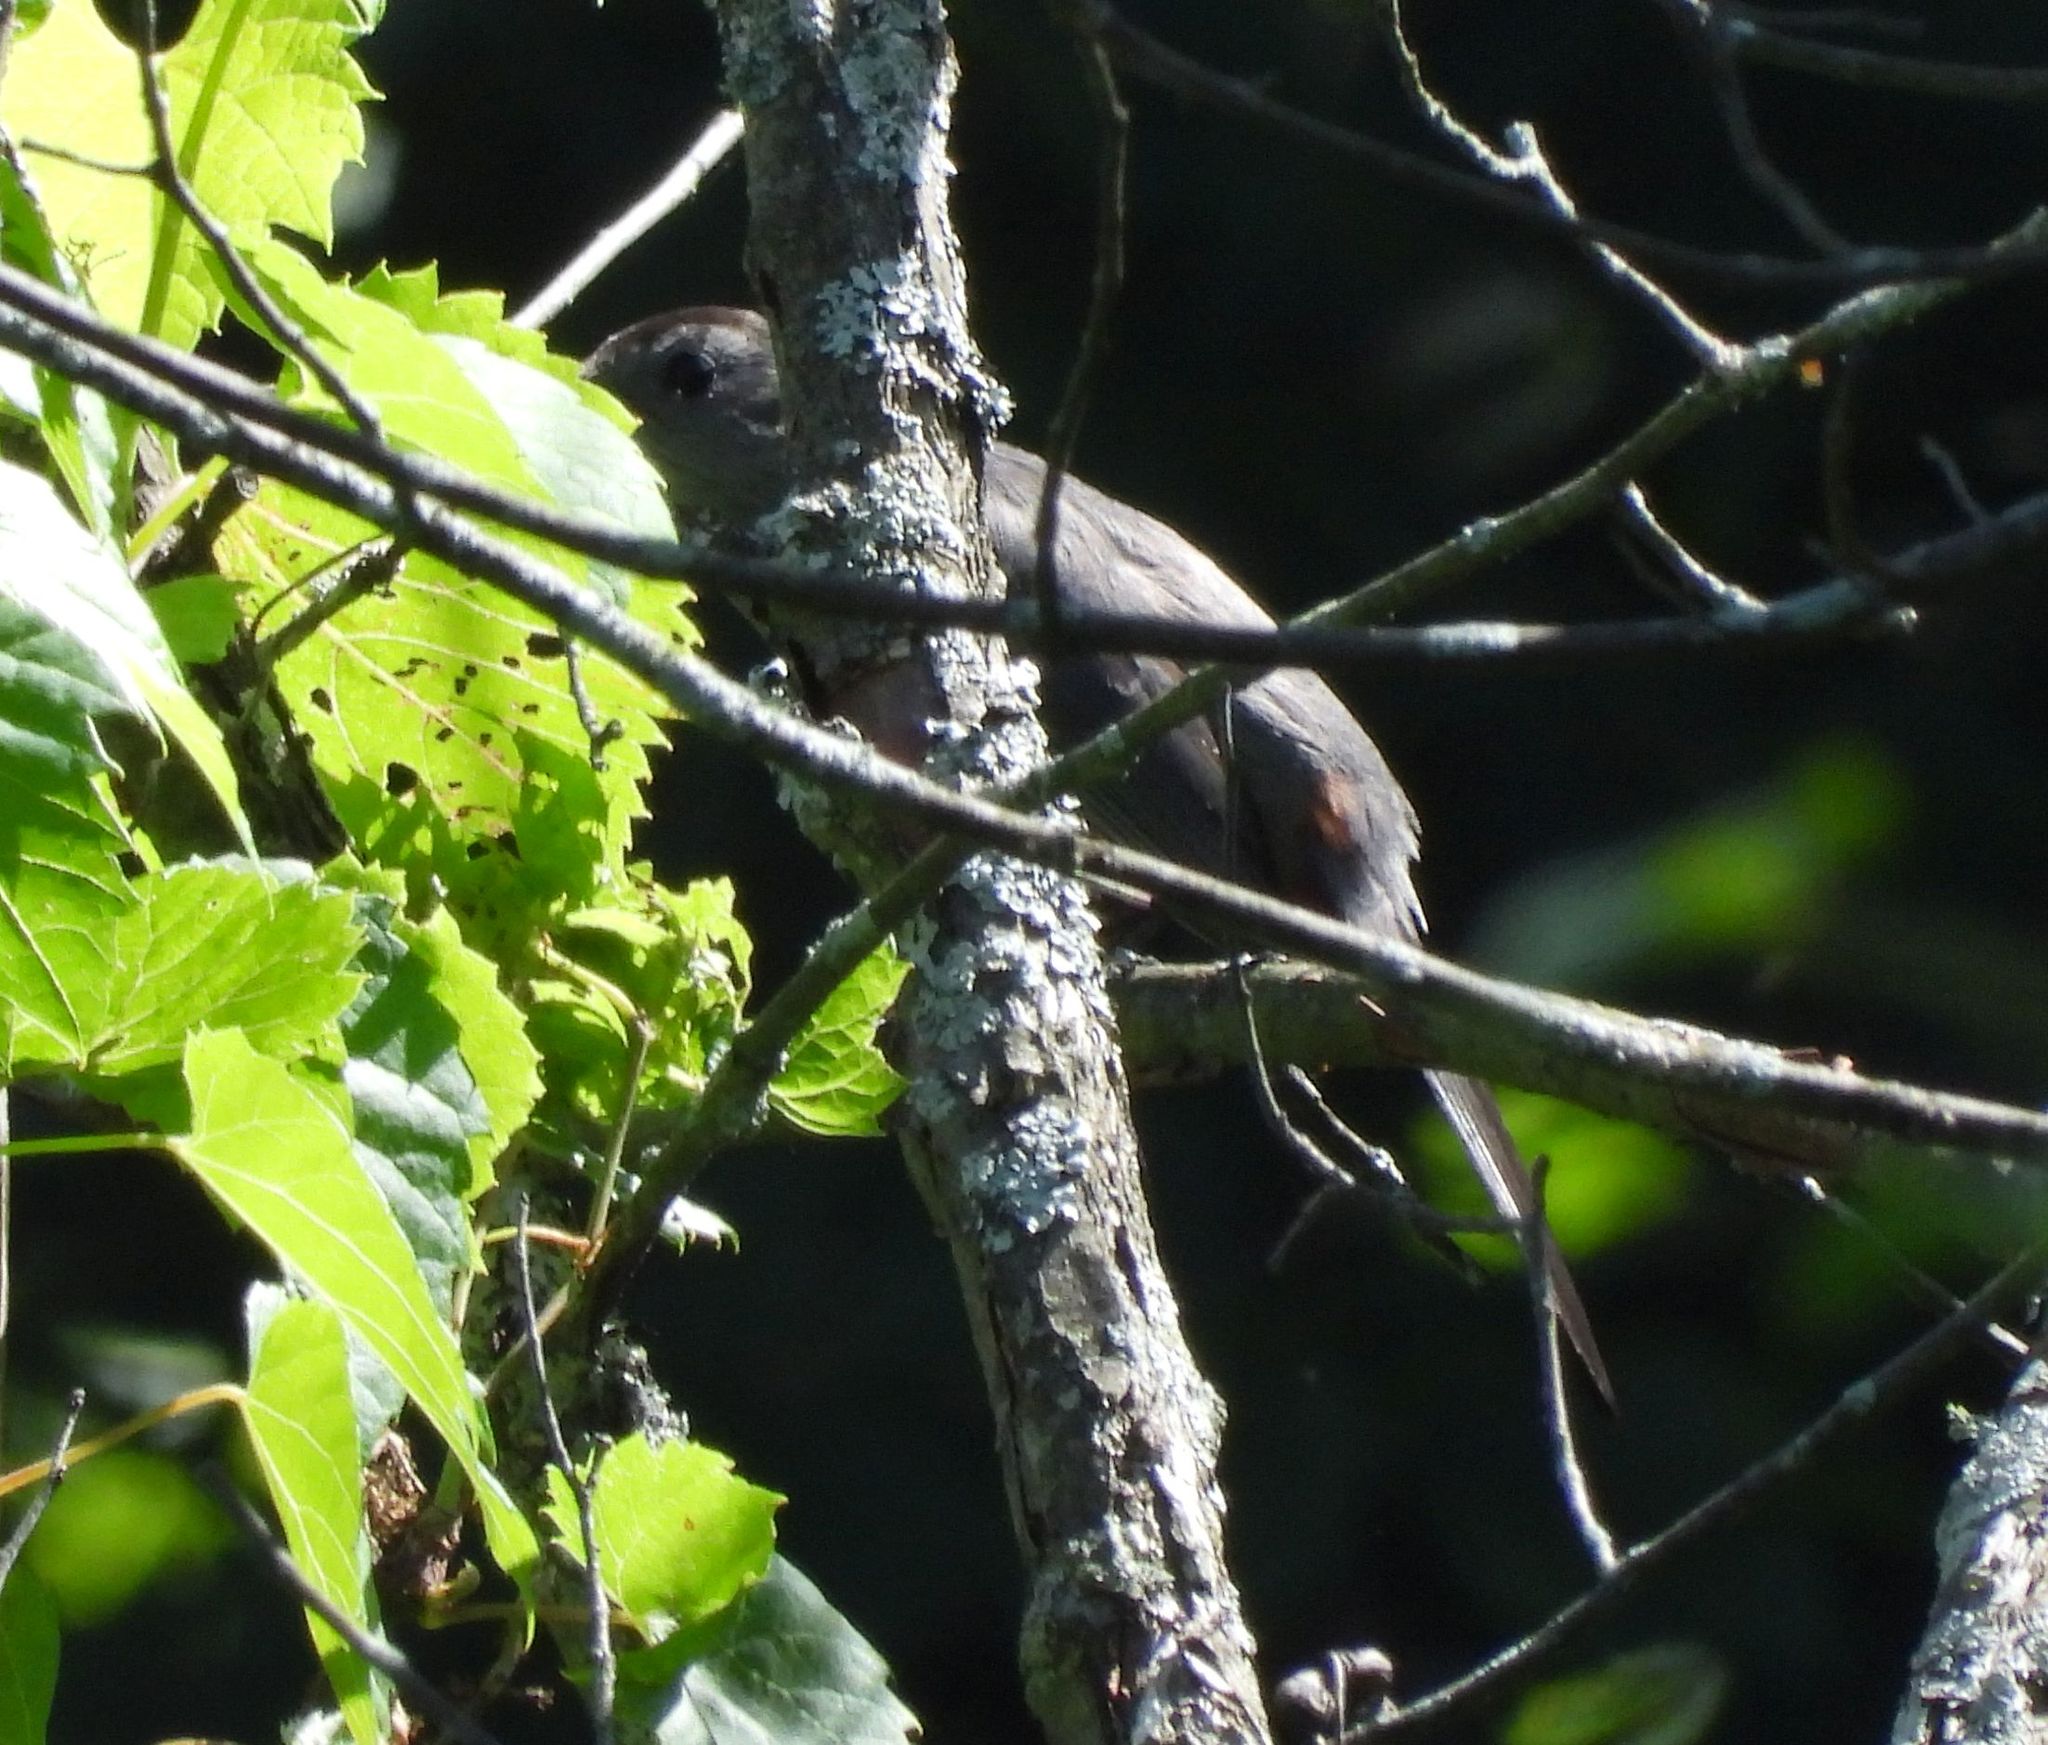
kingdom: Animalia
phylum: Chordata
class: Aves
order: Passeriformes
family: Mimidae
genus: Dumetella
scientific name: Dumetella carolinensis
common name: Gray catbird
